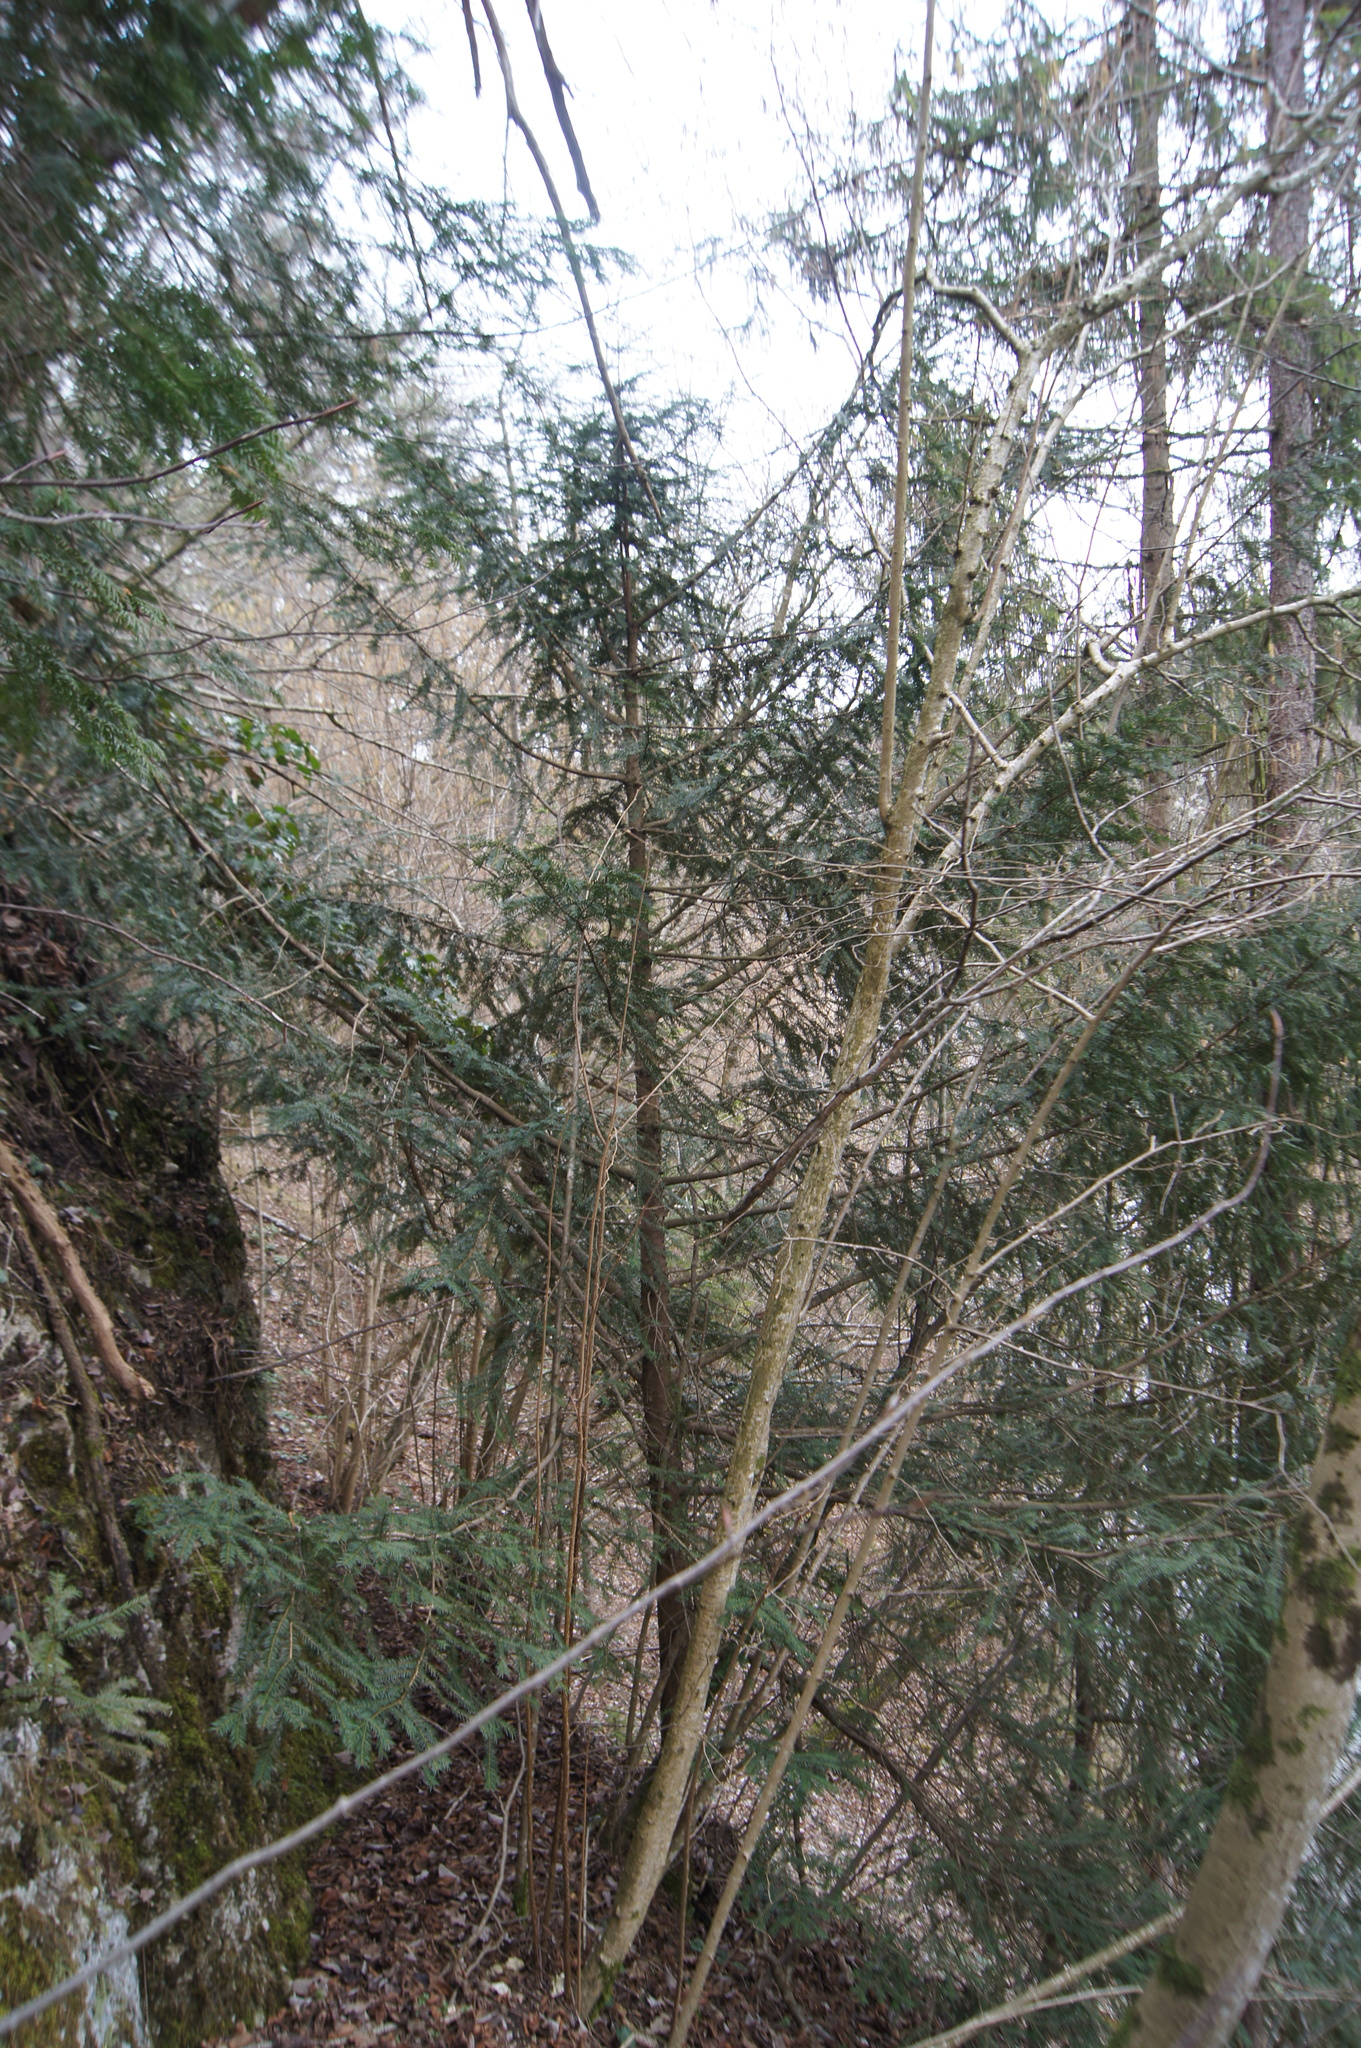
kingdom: Plantae
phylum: Tracheophyta
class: Pinopsida
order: Pinales
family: Taxaceae
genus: Taxus
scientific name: Taxus baccata
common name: Yew
